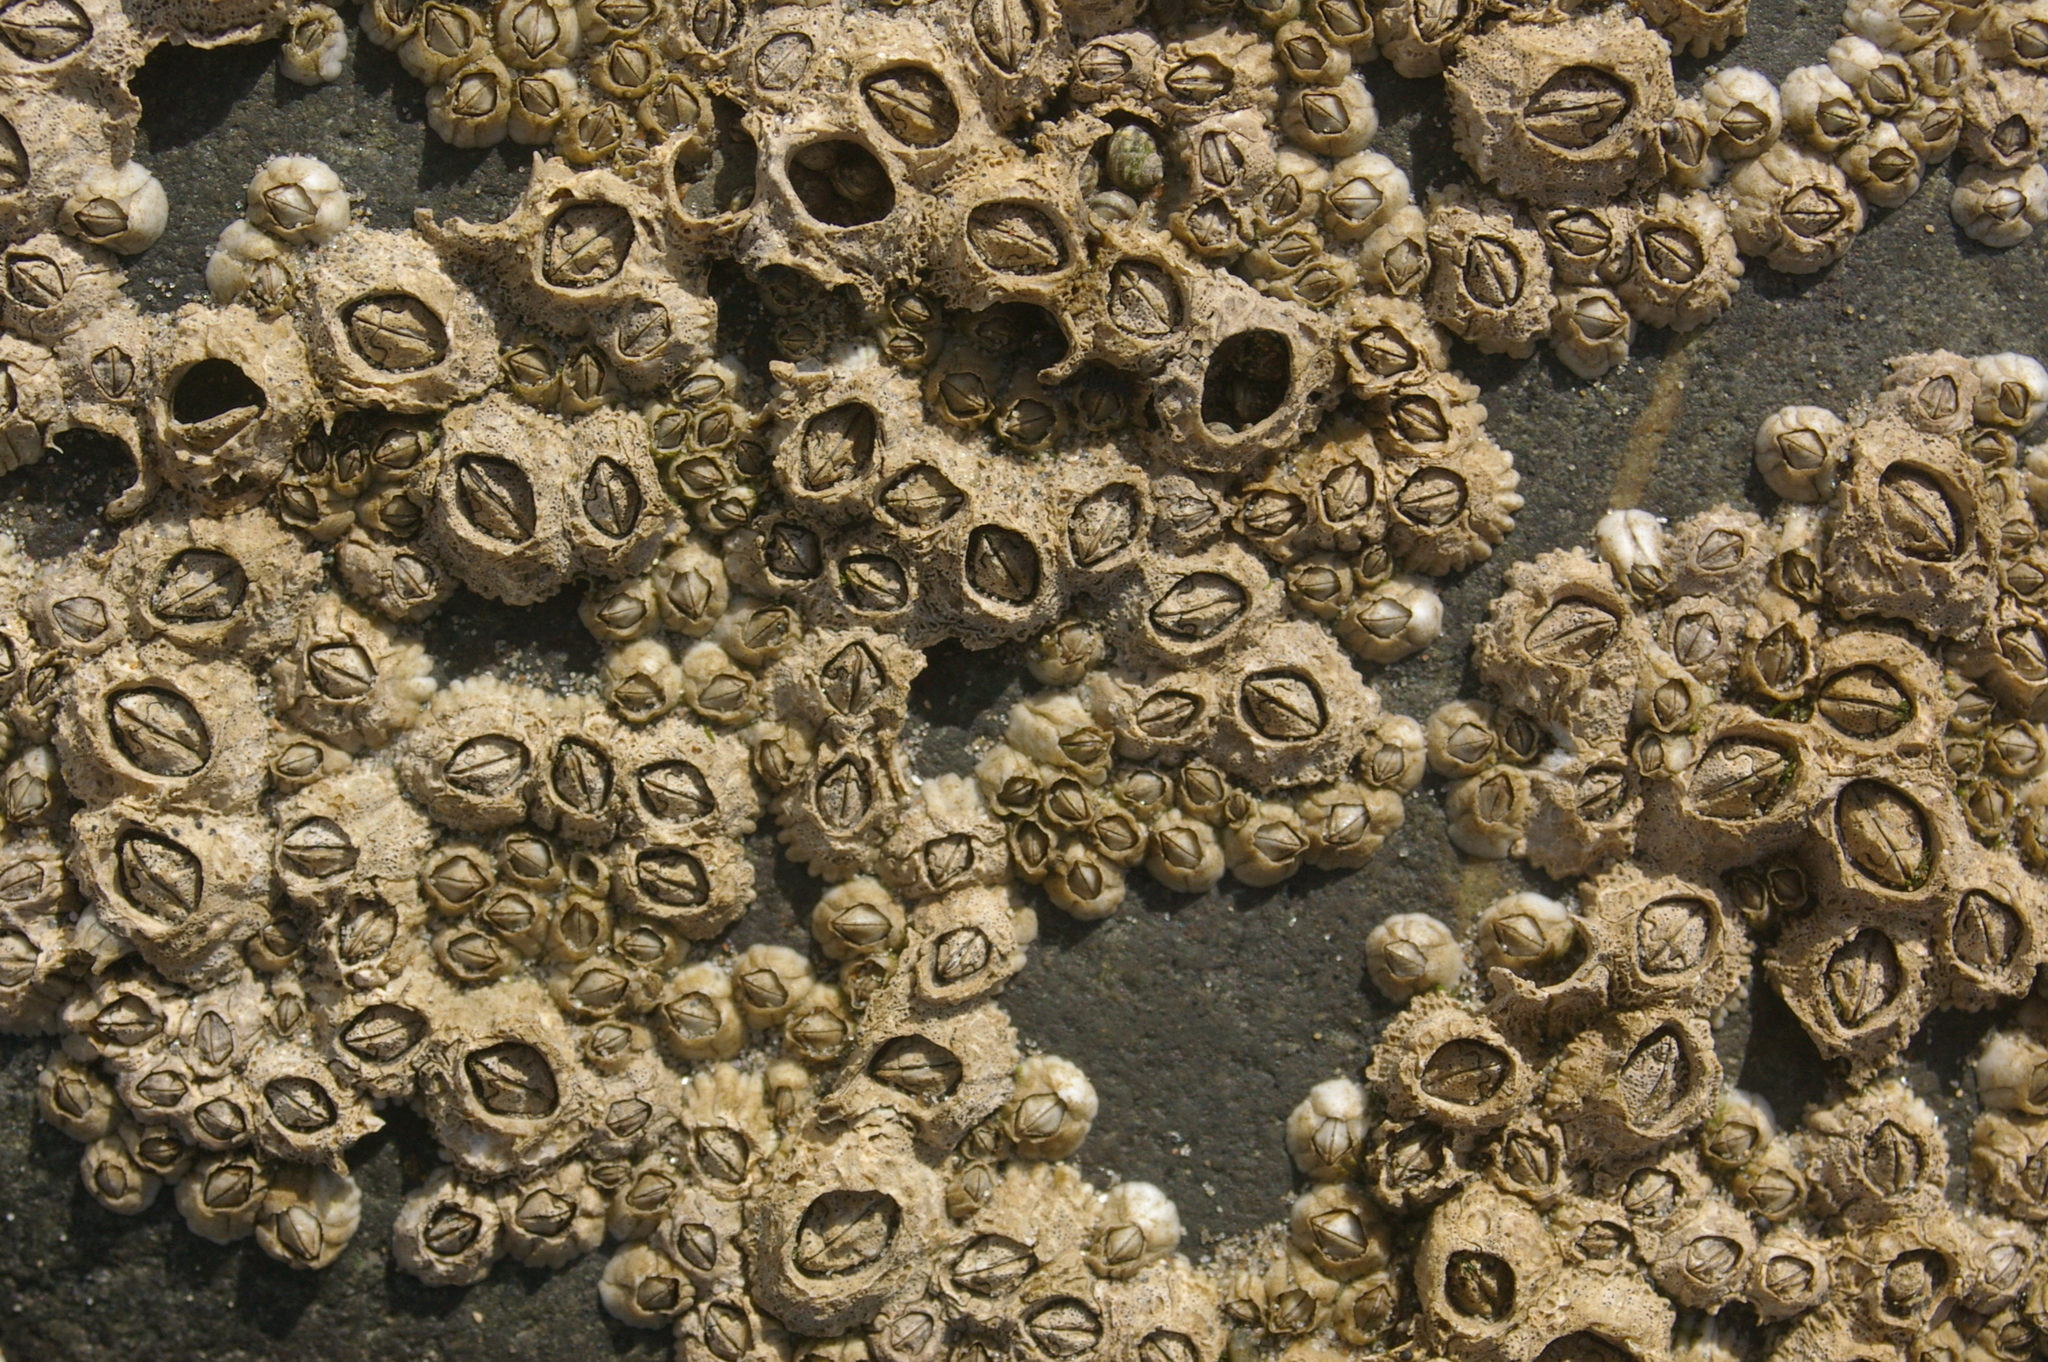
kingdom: Animalia
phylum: Arthropoda
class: Maxillopoda
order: Sessilia
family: Archaeobalanidae
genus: Semibalanus
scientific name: Semibalanus balanoides
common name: Acorn barnacle
